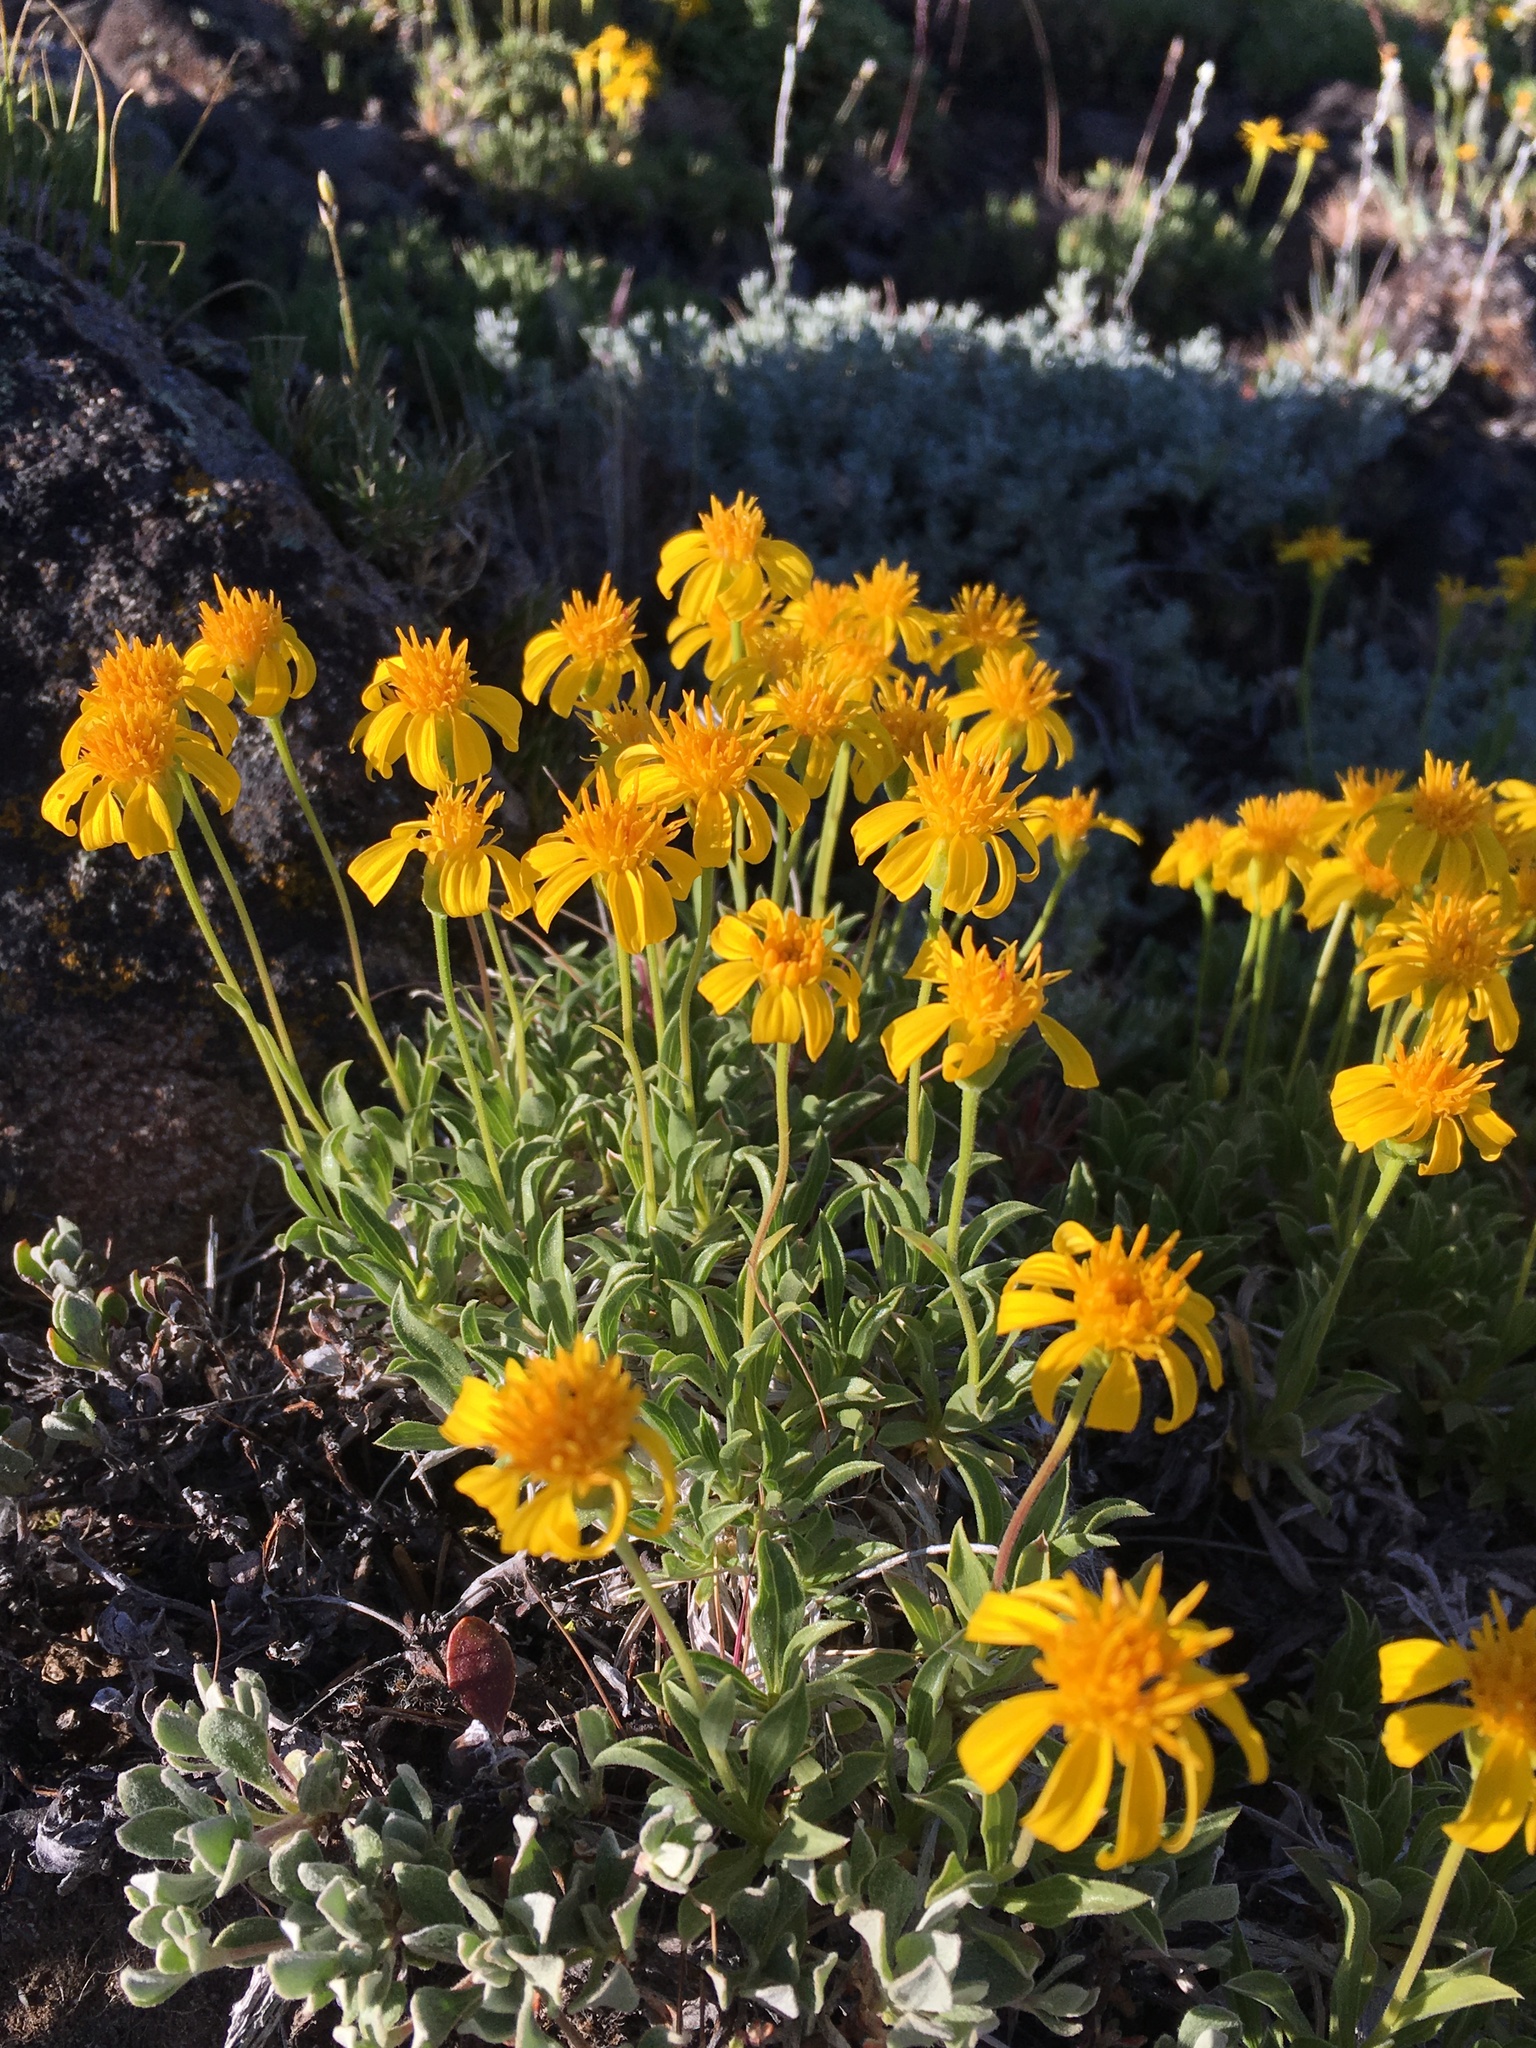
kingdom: Plantae
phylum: Tracheophyta
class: Magnoliopsida
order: Asterales
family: Asteraceae
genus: Stenotus
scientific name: Stenotus acaulis
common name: Stemless goldenweed
